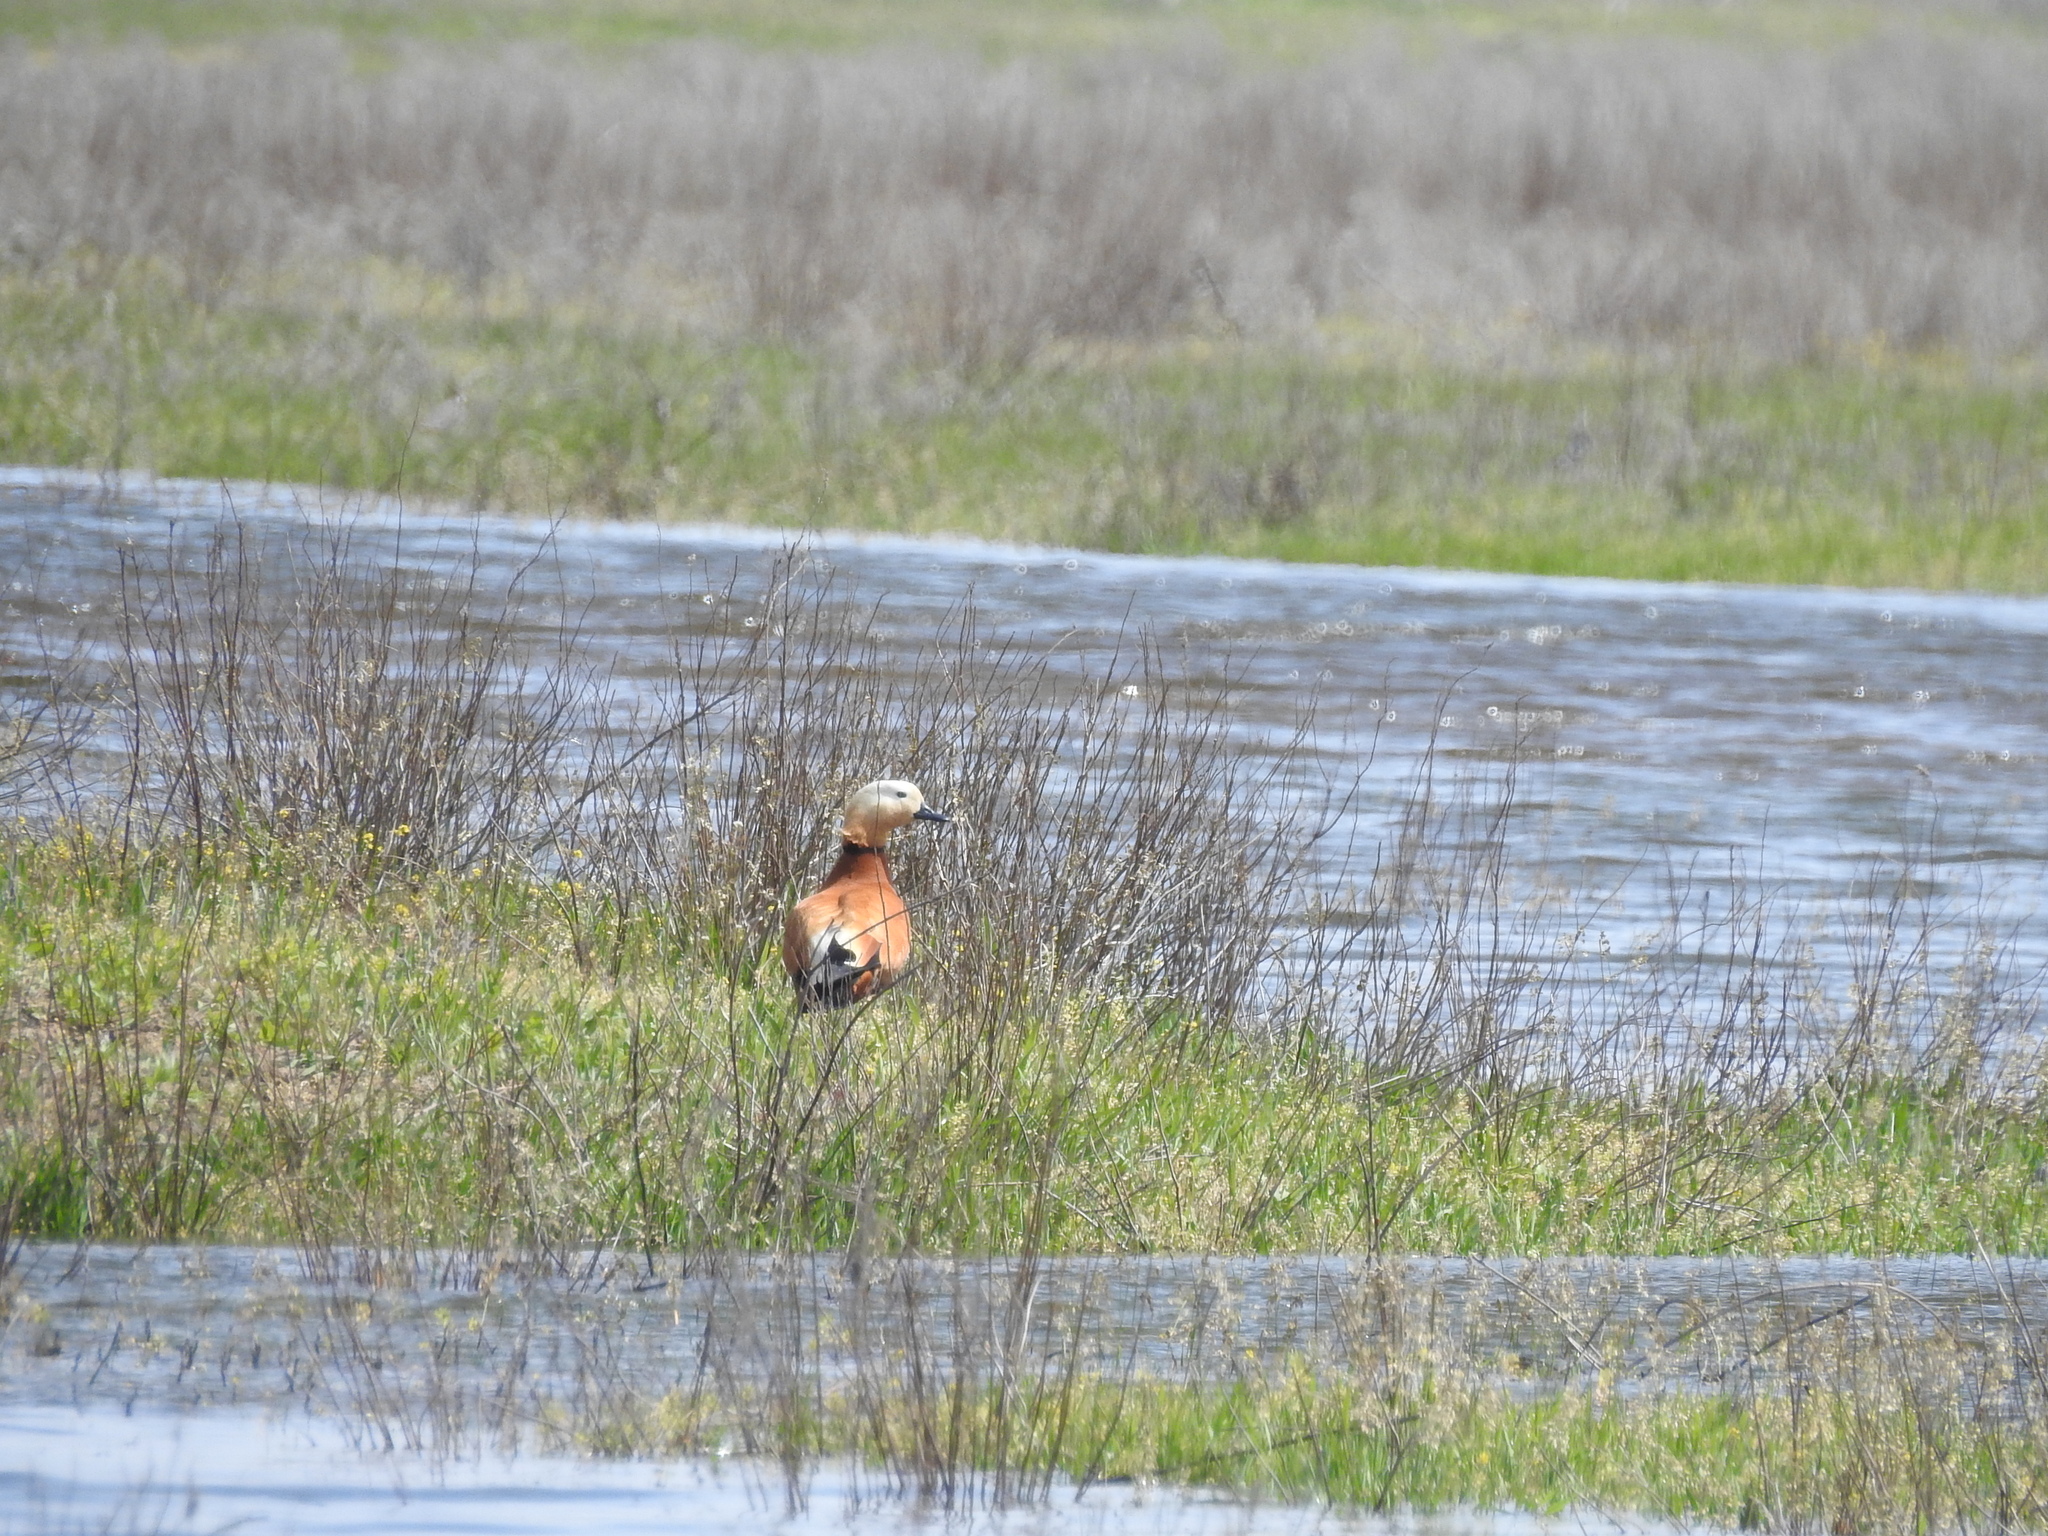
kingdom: Animalia
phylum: Chordata
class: Aves
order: Anseriformes
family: Anatidae
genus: Tadorna
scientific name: Tadorna ferruginea
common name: Ruddy shelduck
